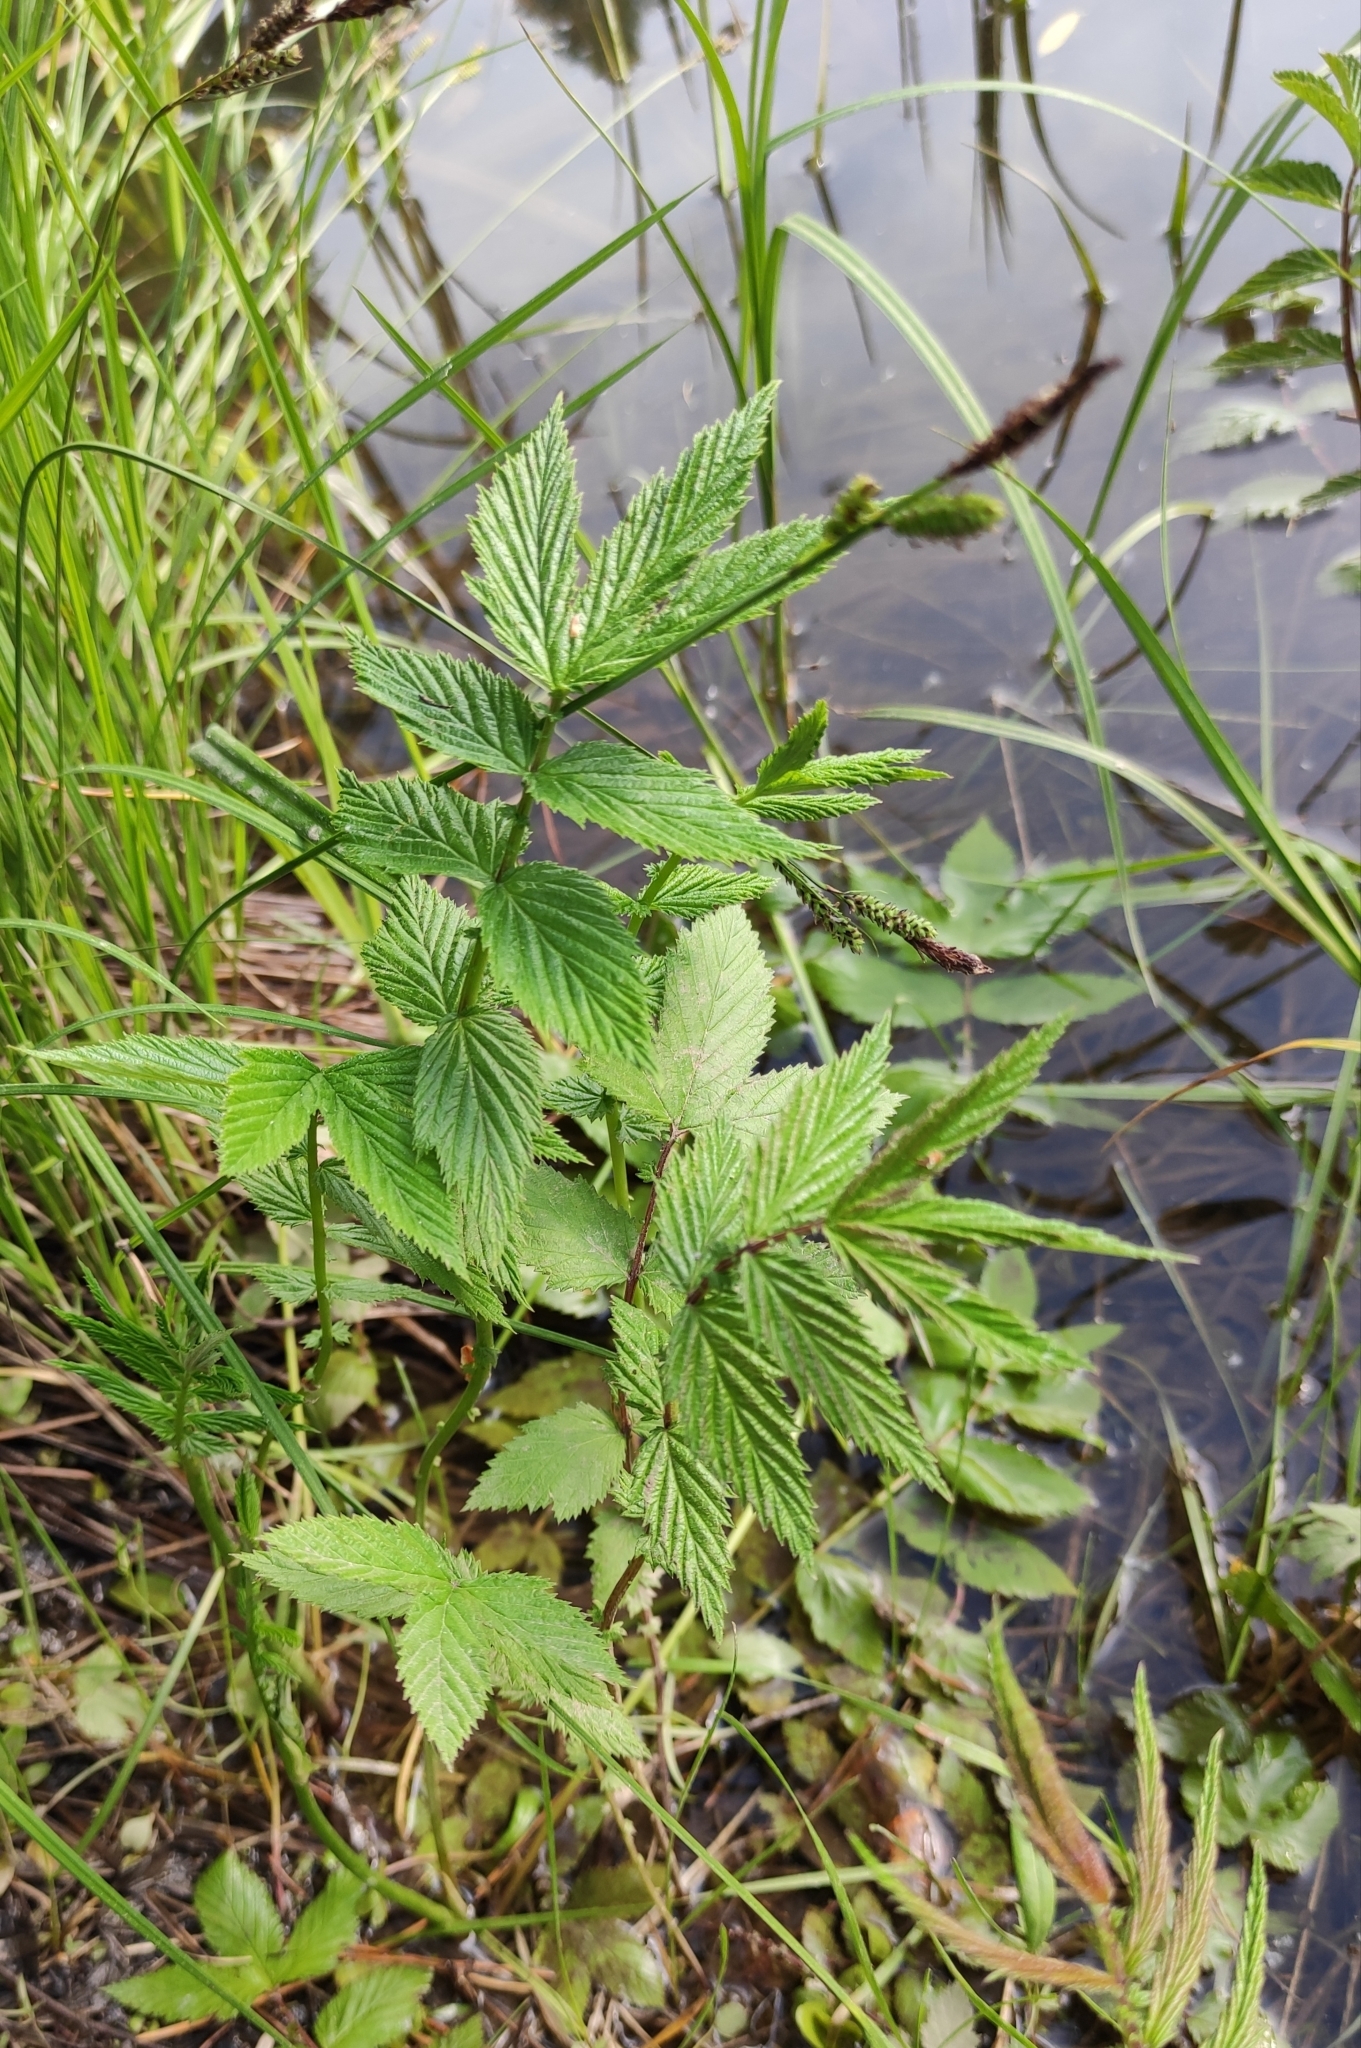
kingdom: Plantae
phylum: Tracheophyta
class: Magnoliopsida
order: Rosales
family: Rosaceae
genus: Filipendula
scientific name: Filipendula ulmaria
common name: Meadowsweet
